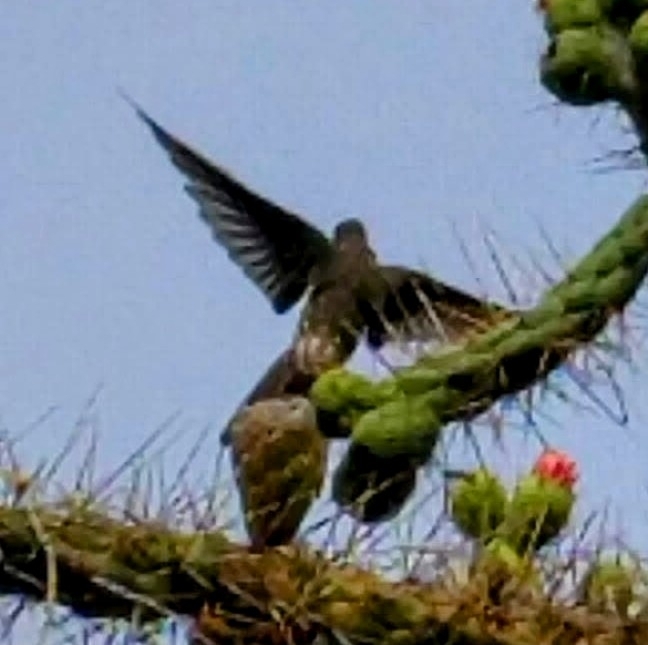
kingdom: Animalia
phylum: Chordata
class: Aves
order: Apodiformes
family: Trochilidae
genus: Patagona
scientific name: Patagona gigas
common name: Giant hummingbird
